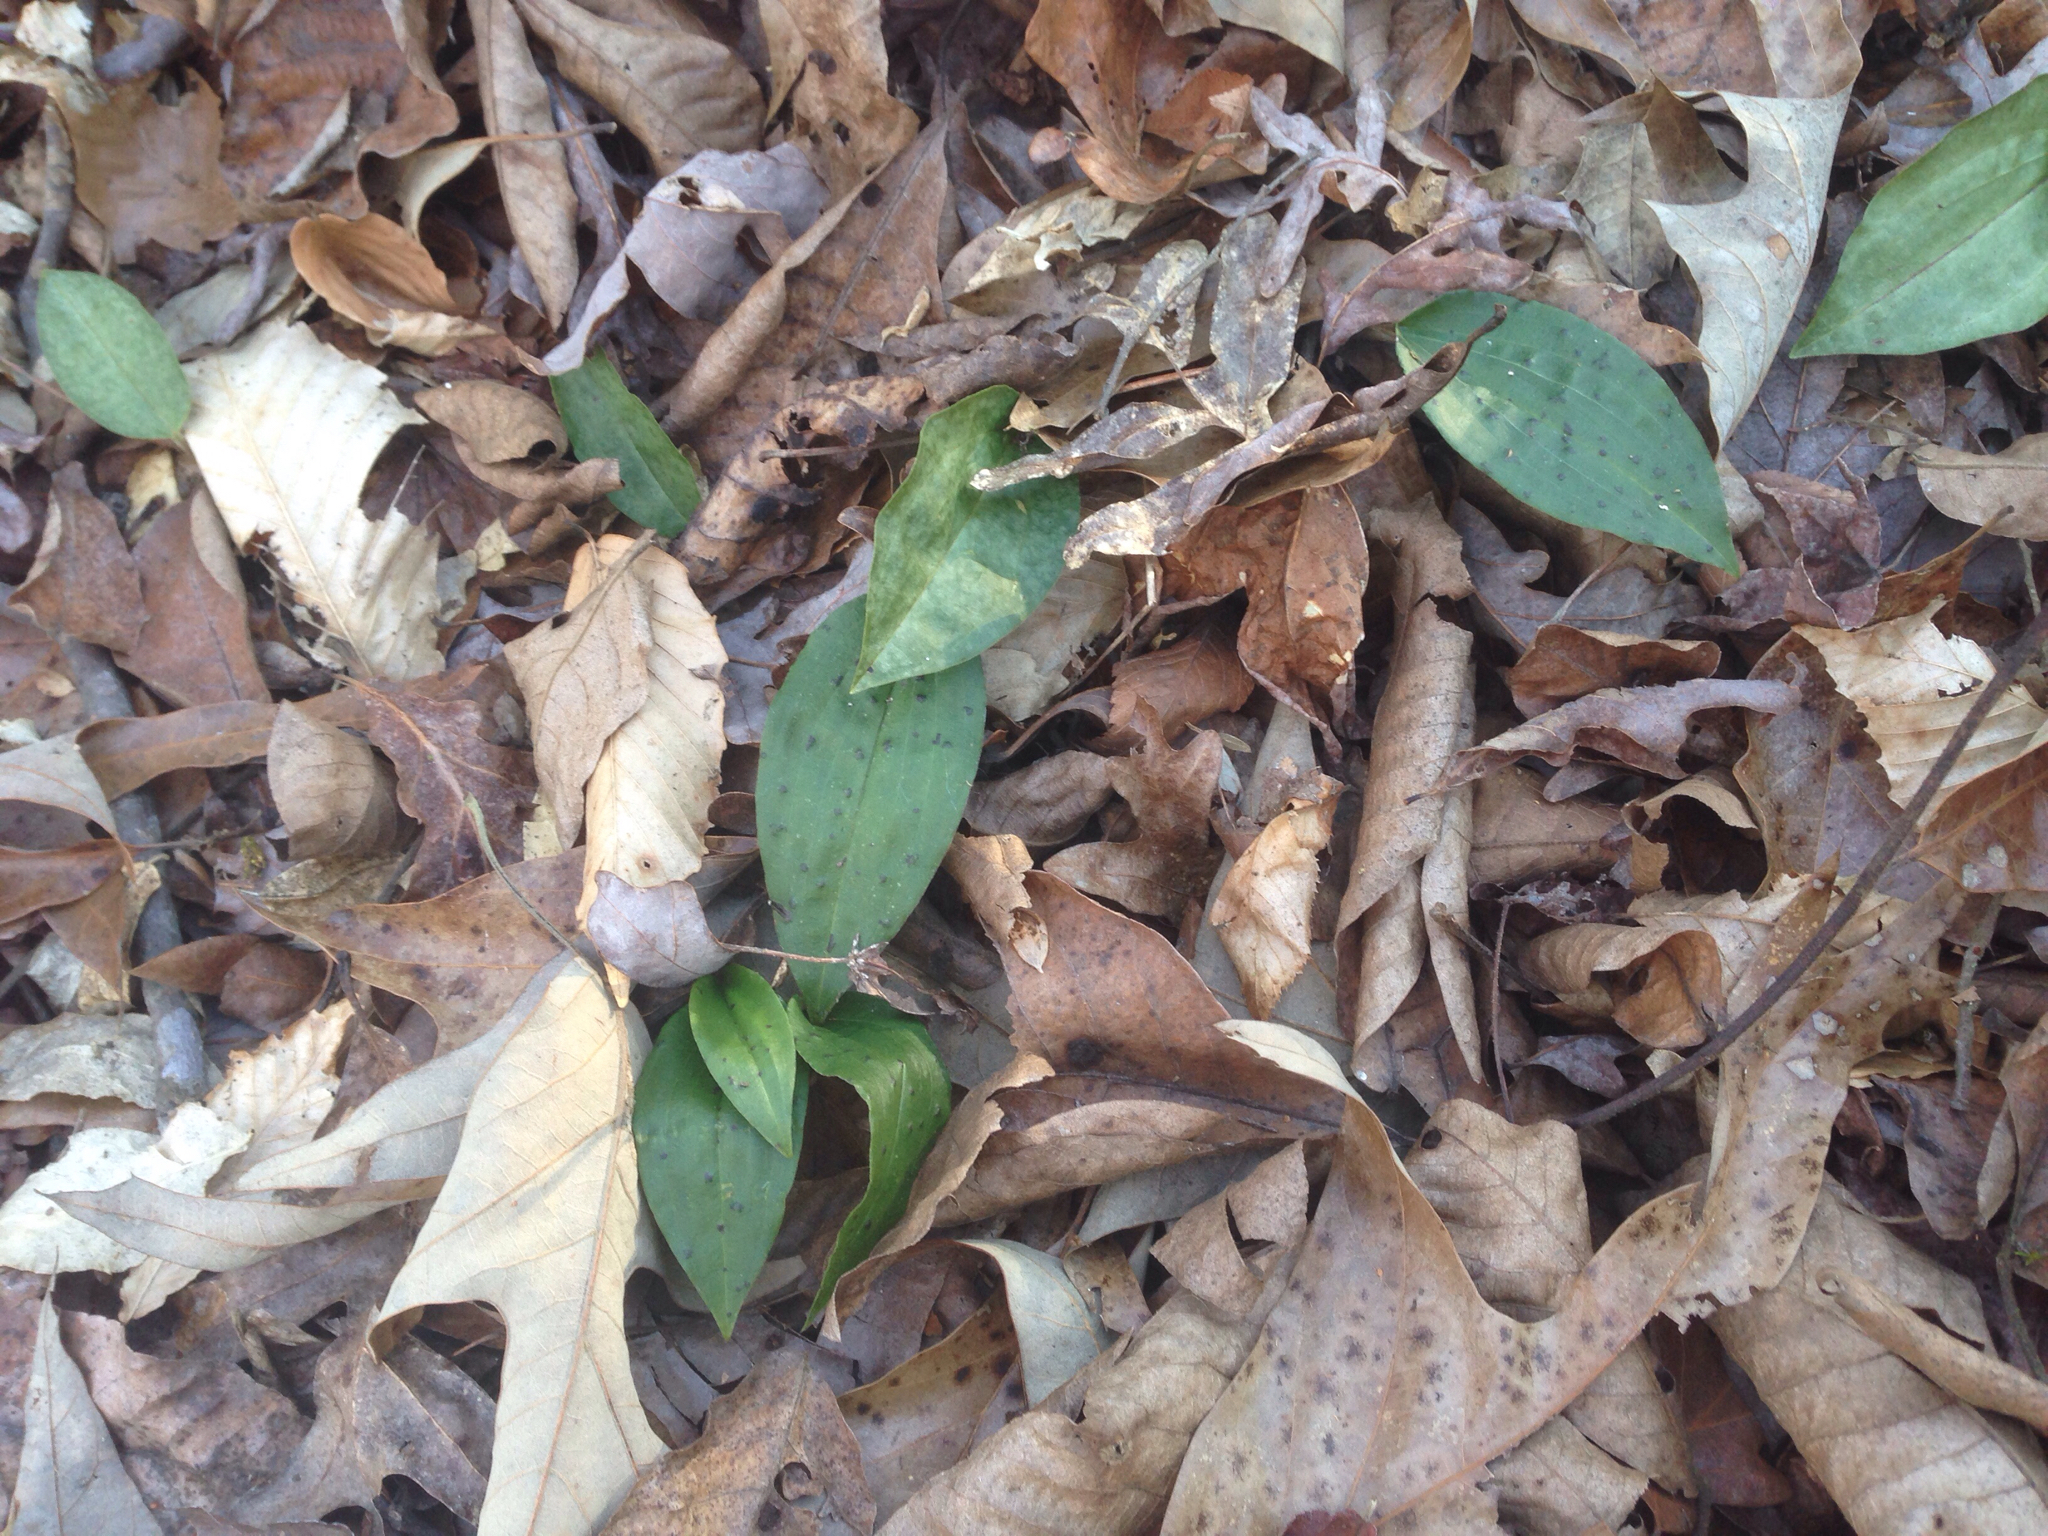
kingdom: Plantae
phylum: Tracheophyta
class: Liliopsida
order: Asparagales
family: Orchidaceae
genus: Tipularia
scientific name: Tipularia discolor
